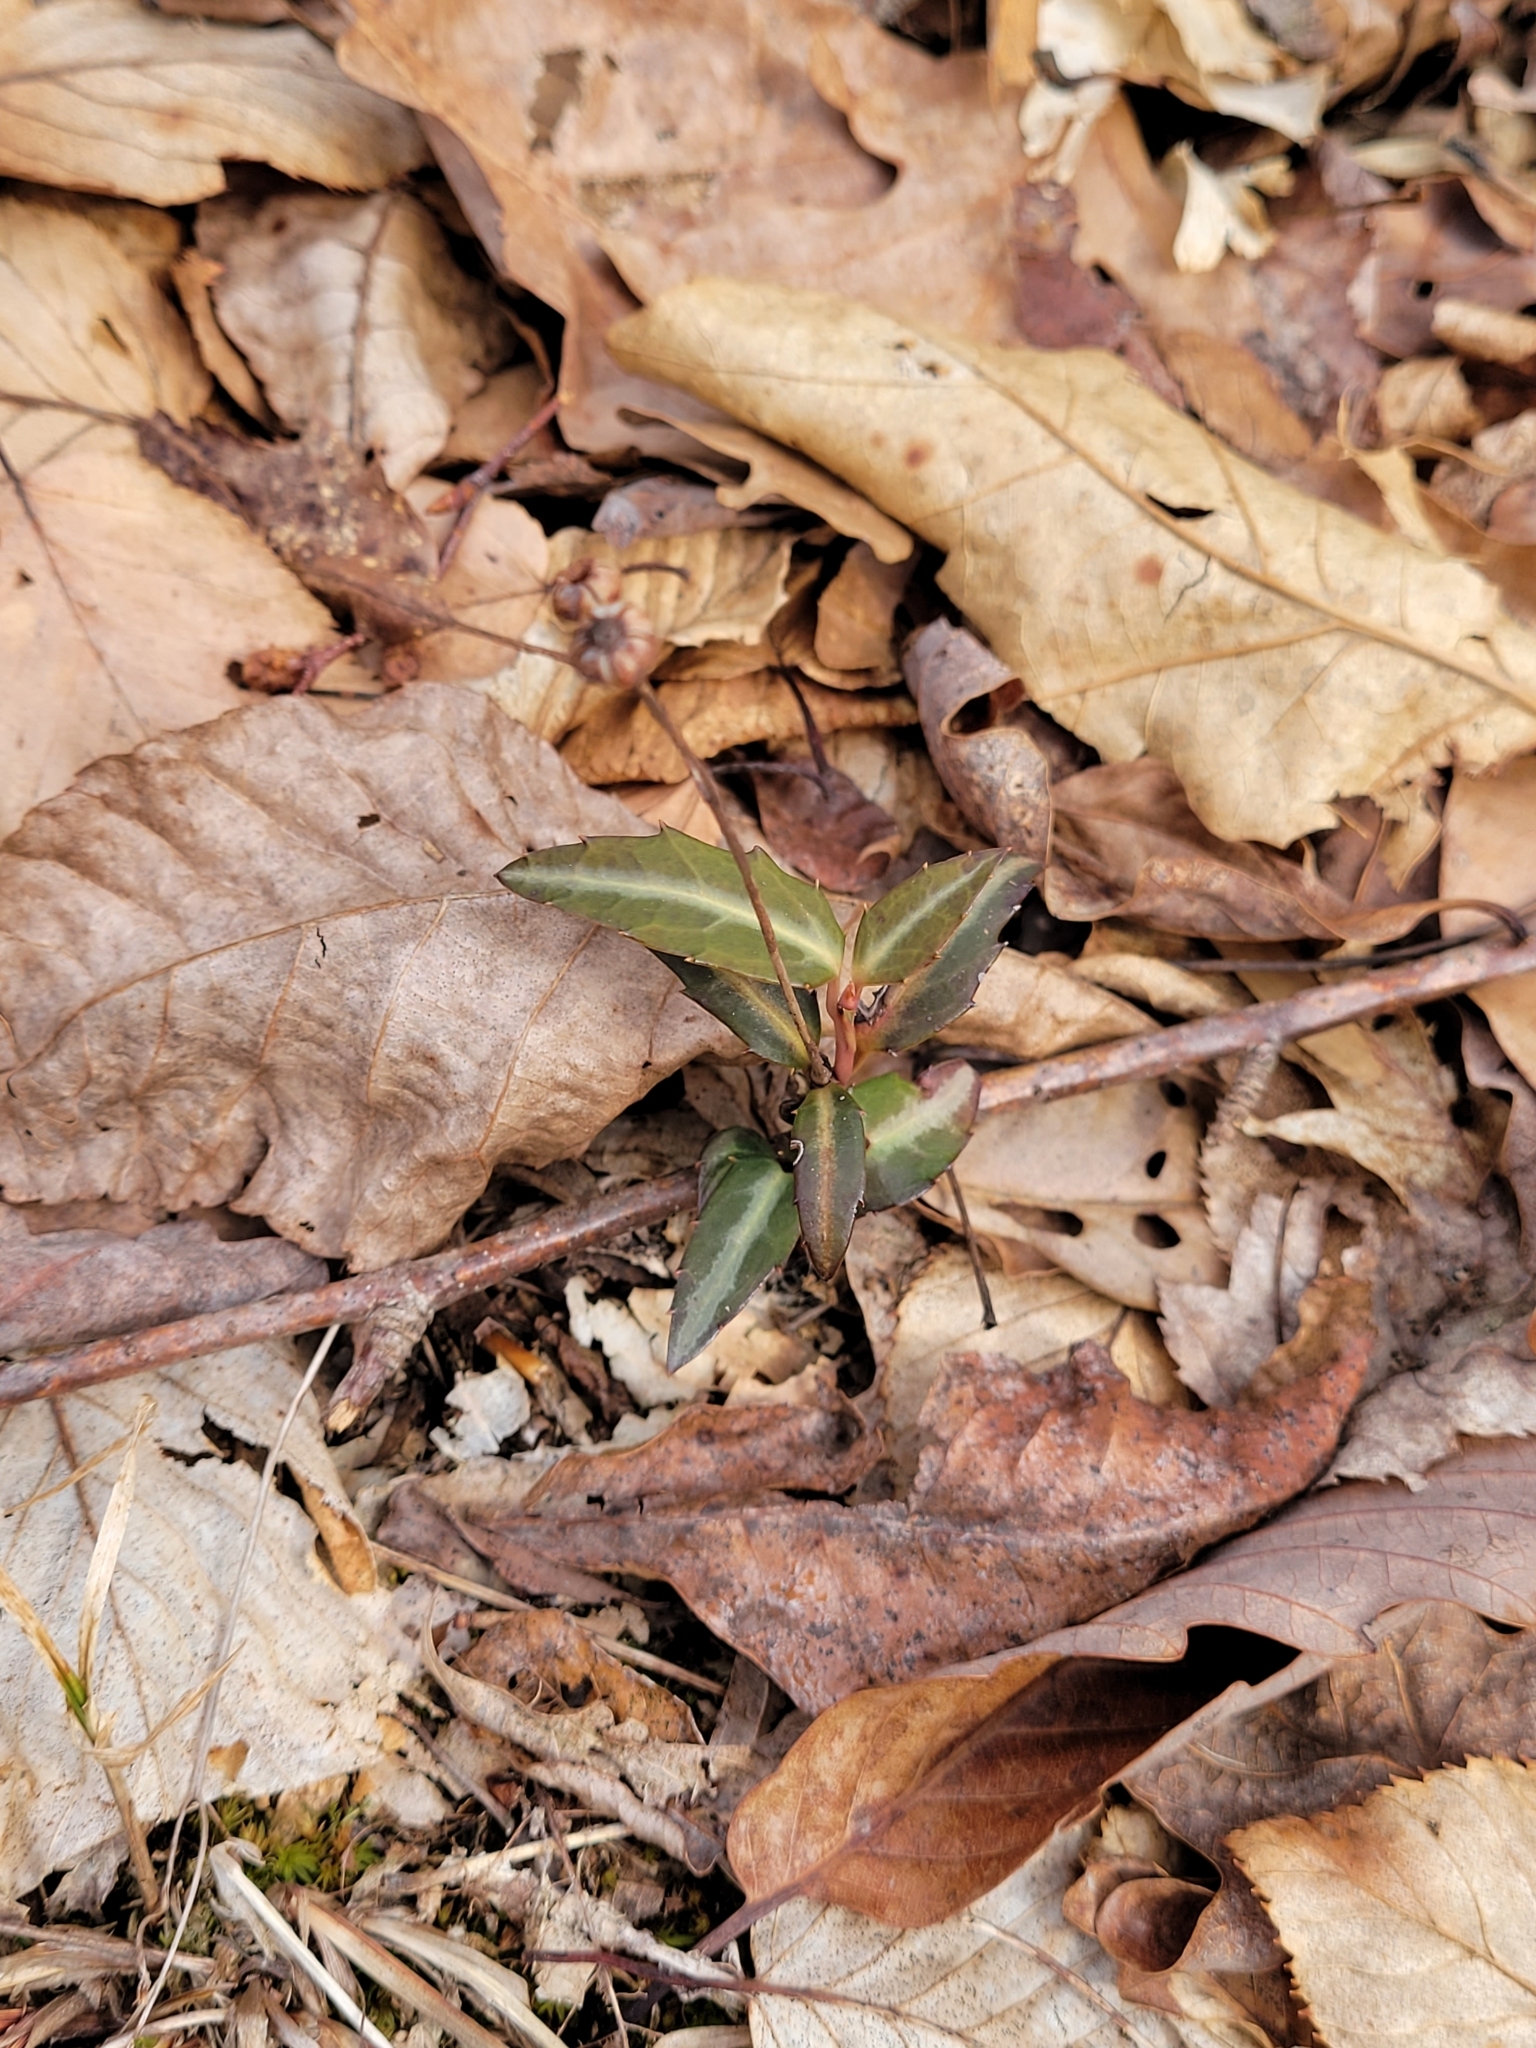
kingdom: Plantae
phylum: Tracheophyta
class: Magnoliopsida
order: Ericales
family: Ericaceae
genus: Chimaphila
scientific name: Chimaphila maculata
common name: Spotted pipsissewa
